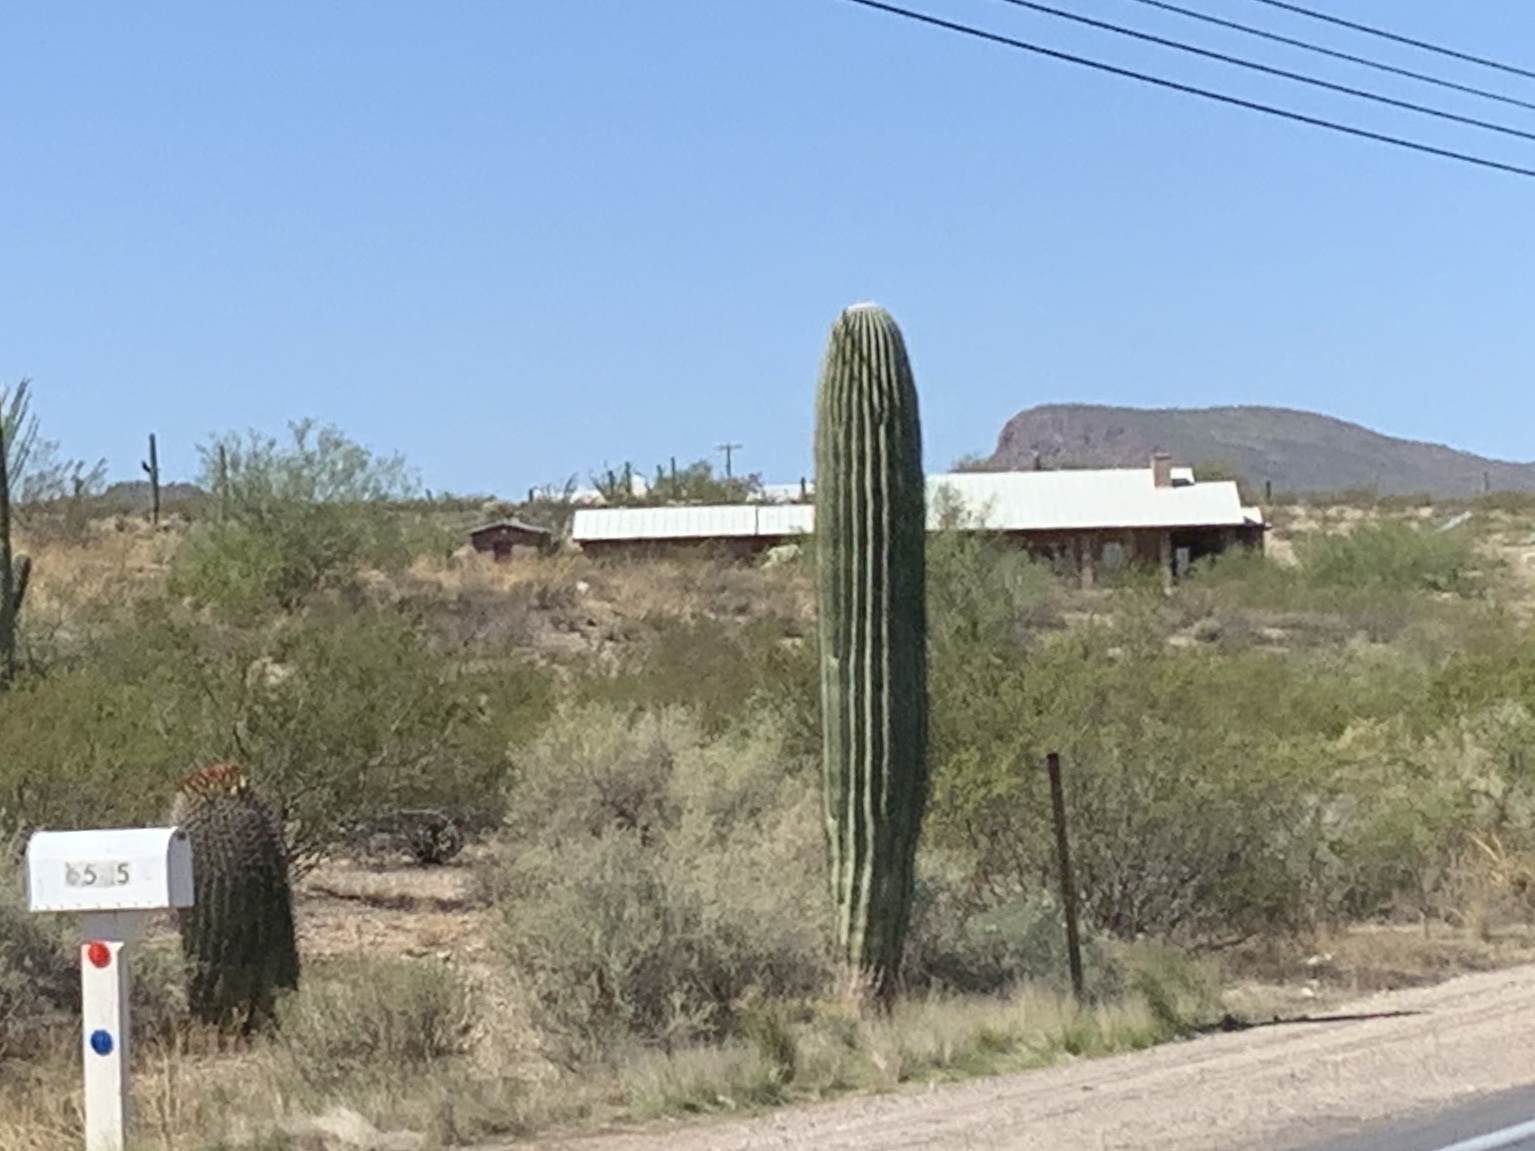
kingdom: Plantae
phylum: Tracheophyta
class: Magnoliopsida
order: Caryophyllales
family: Cactaceae
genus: Carnegiea
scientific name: Carnegiea gigantea
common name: Saguaro
